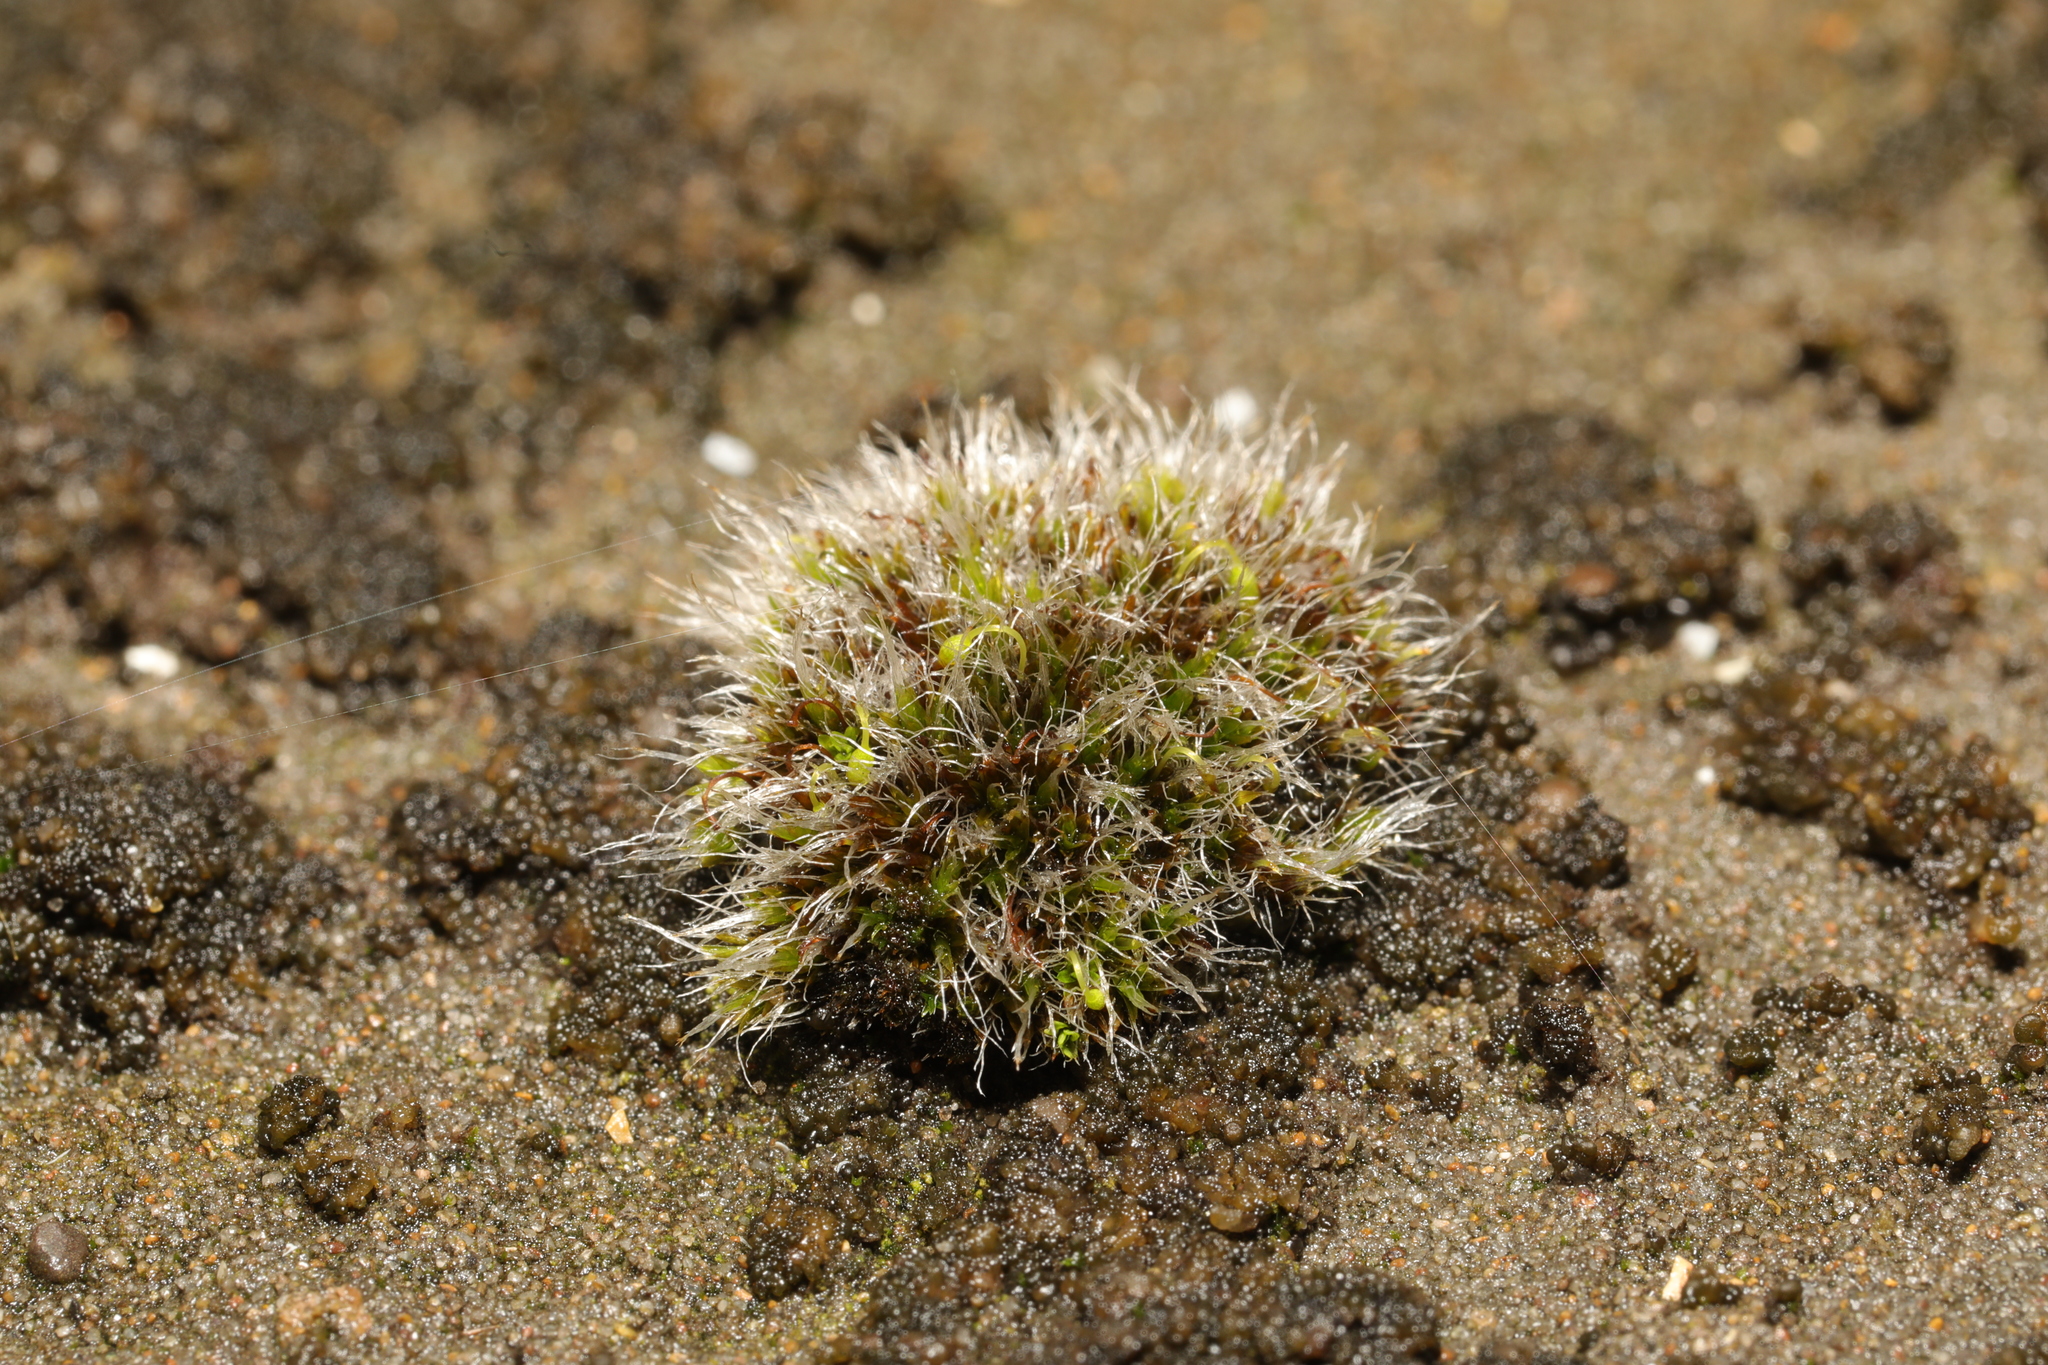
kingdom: Plantae
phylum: Bryophyta
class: Bryopsida
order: Grimmiales
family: Grimmiaceae
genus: Grimmia
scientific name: Grimmia pulvinata
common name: Grey-cushioned grimmia
